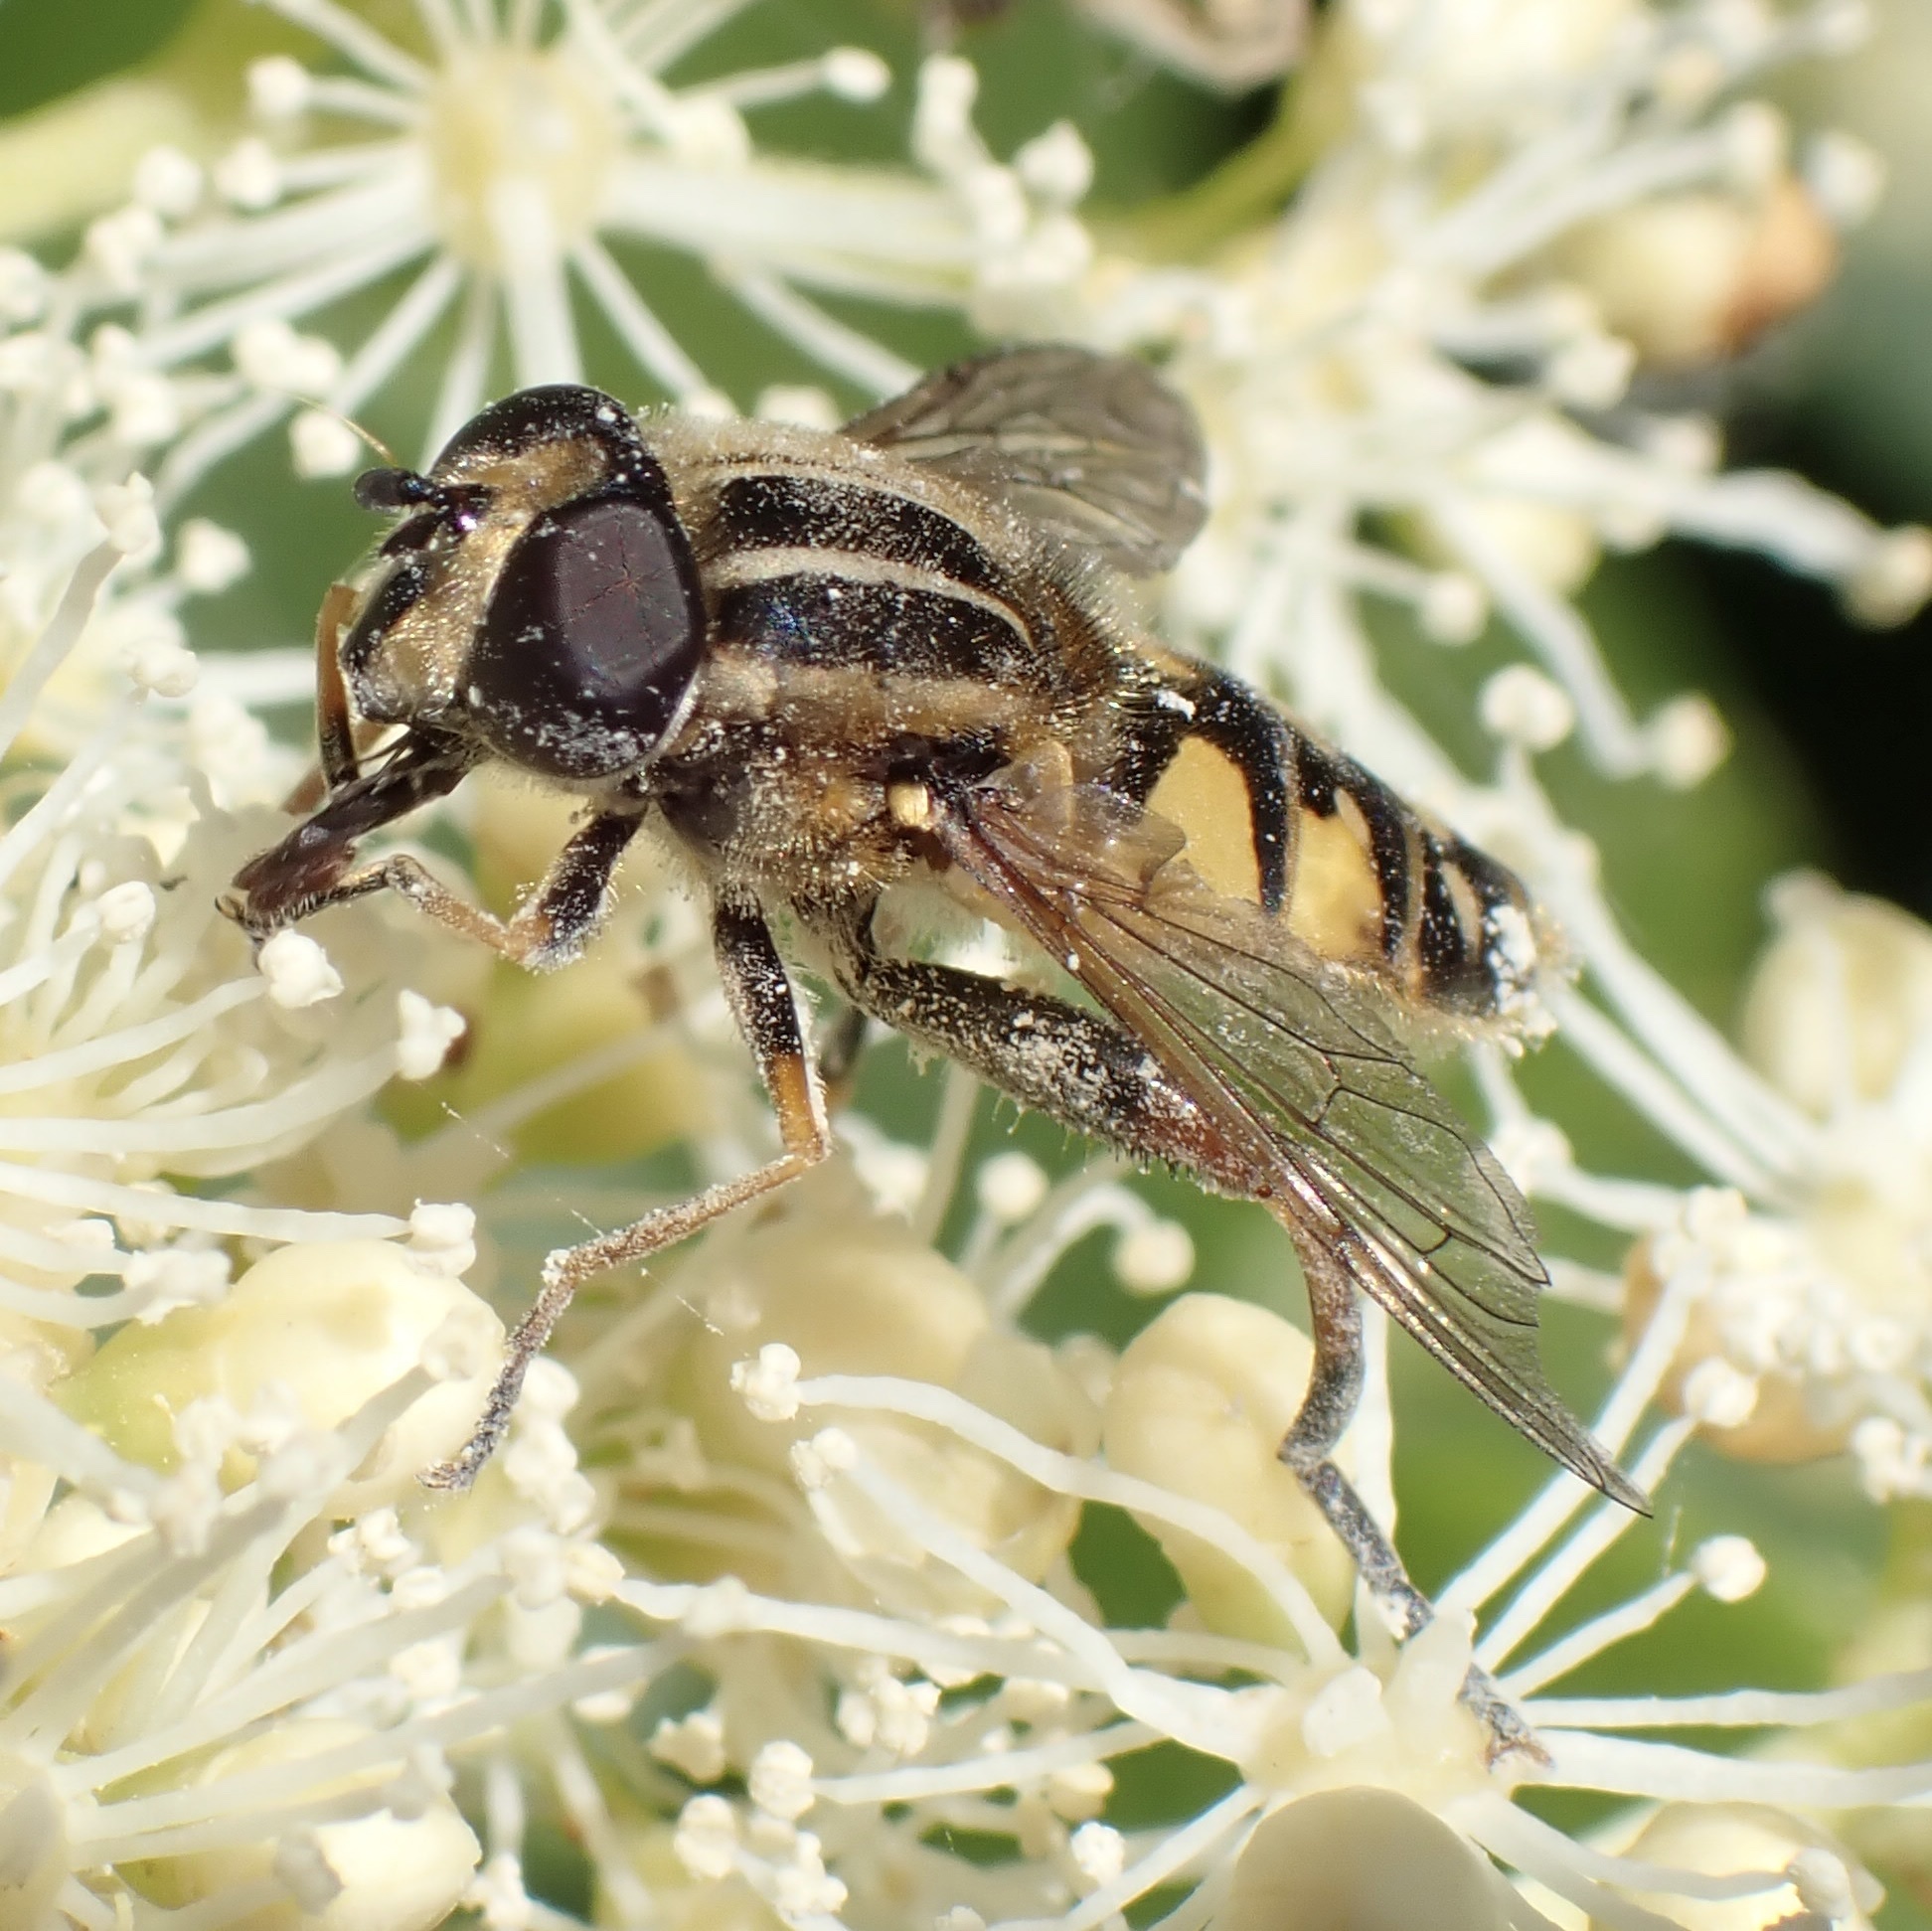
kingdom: Animalia
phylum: Arthropoda
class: Insecta
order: Diptera
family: Syrphidae
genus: Helophilus
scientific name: Helophilus pendulus
